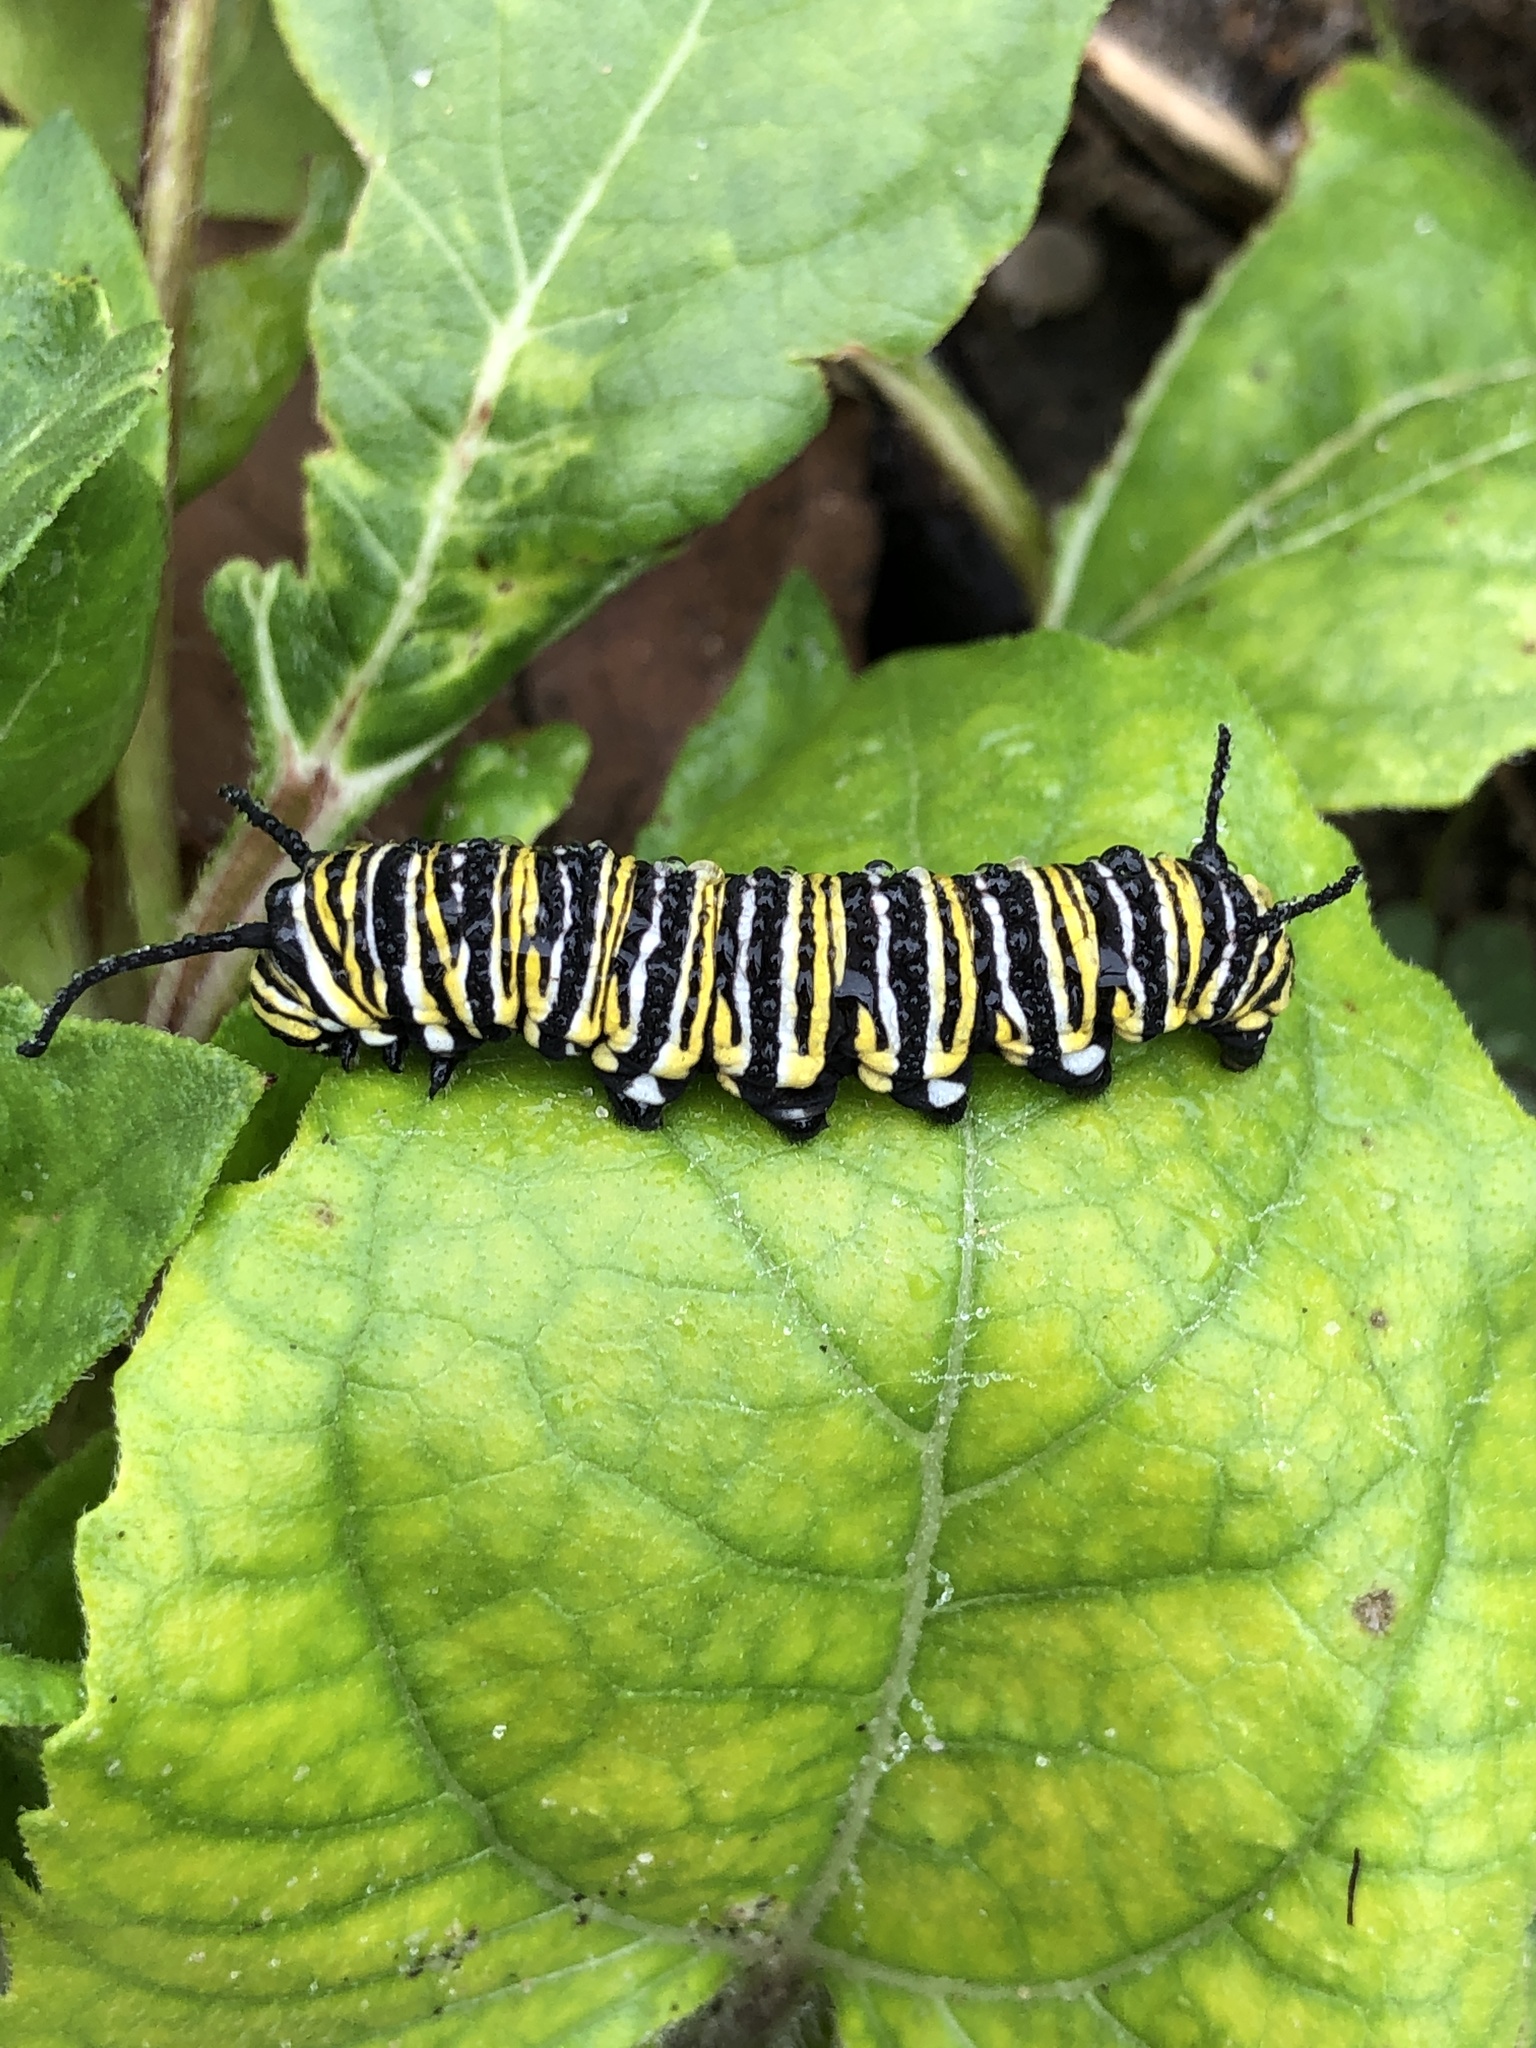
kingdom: Animalia
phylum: Arthropoda
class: Insecta
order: Lepidoptera
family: Nymphalidae
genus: Danaus
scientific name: Danaus plexippus
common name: Monarch
